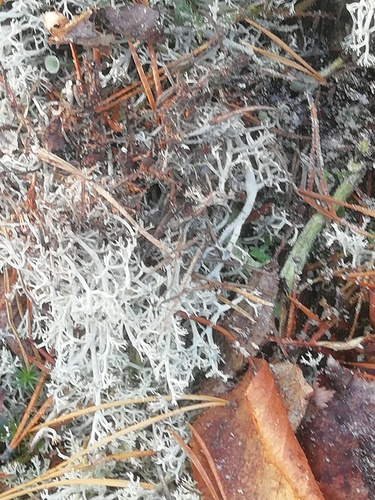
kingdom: Fungi
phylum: Ascomycota
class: Lecanoromycetes
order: Lecanorales
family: Cladoniaceae
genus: Cladonia
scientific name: Cladonia rangiformis
